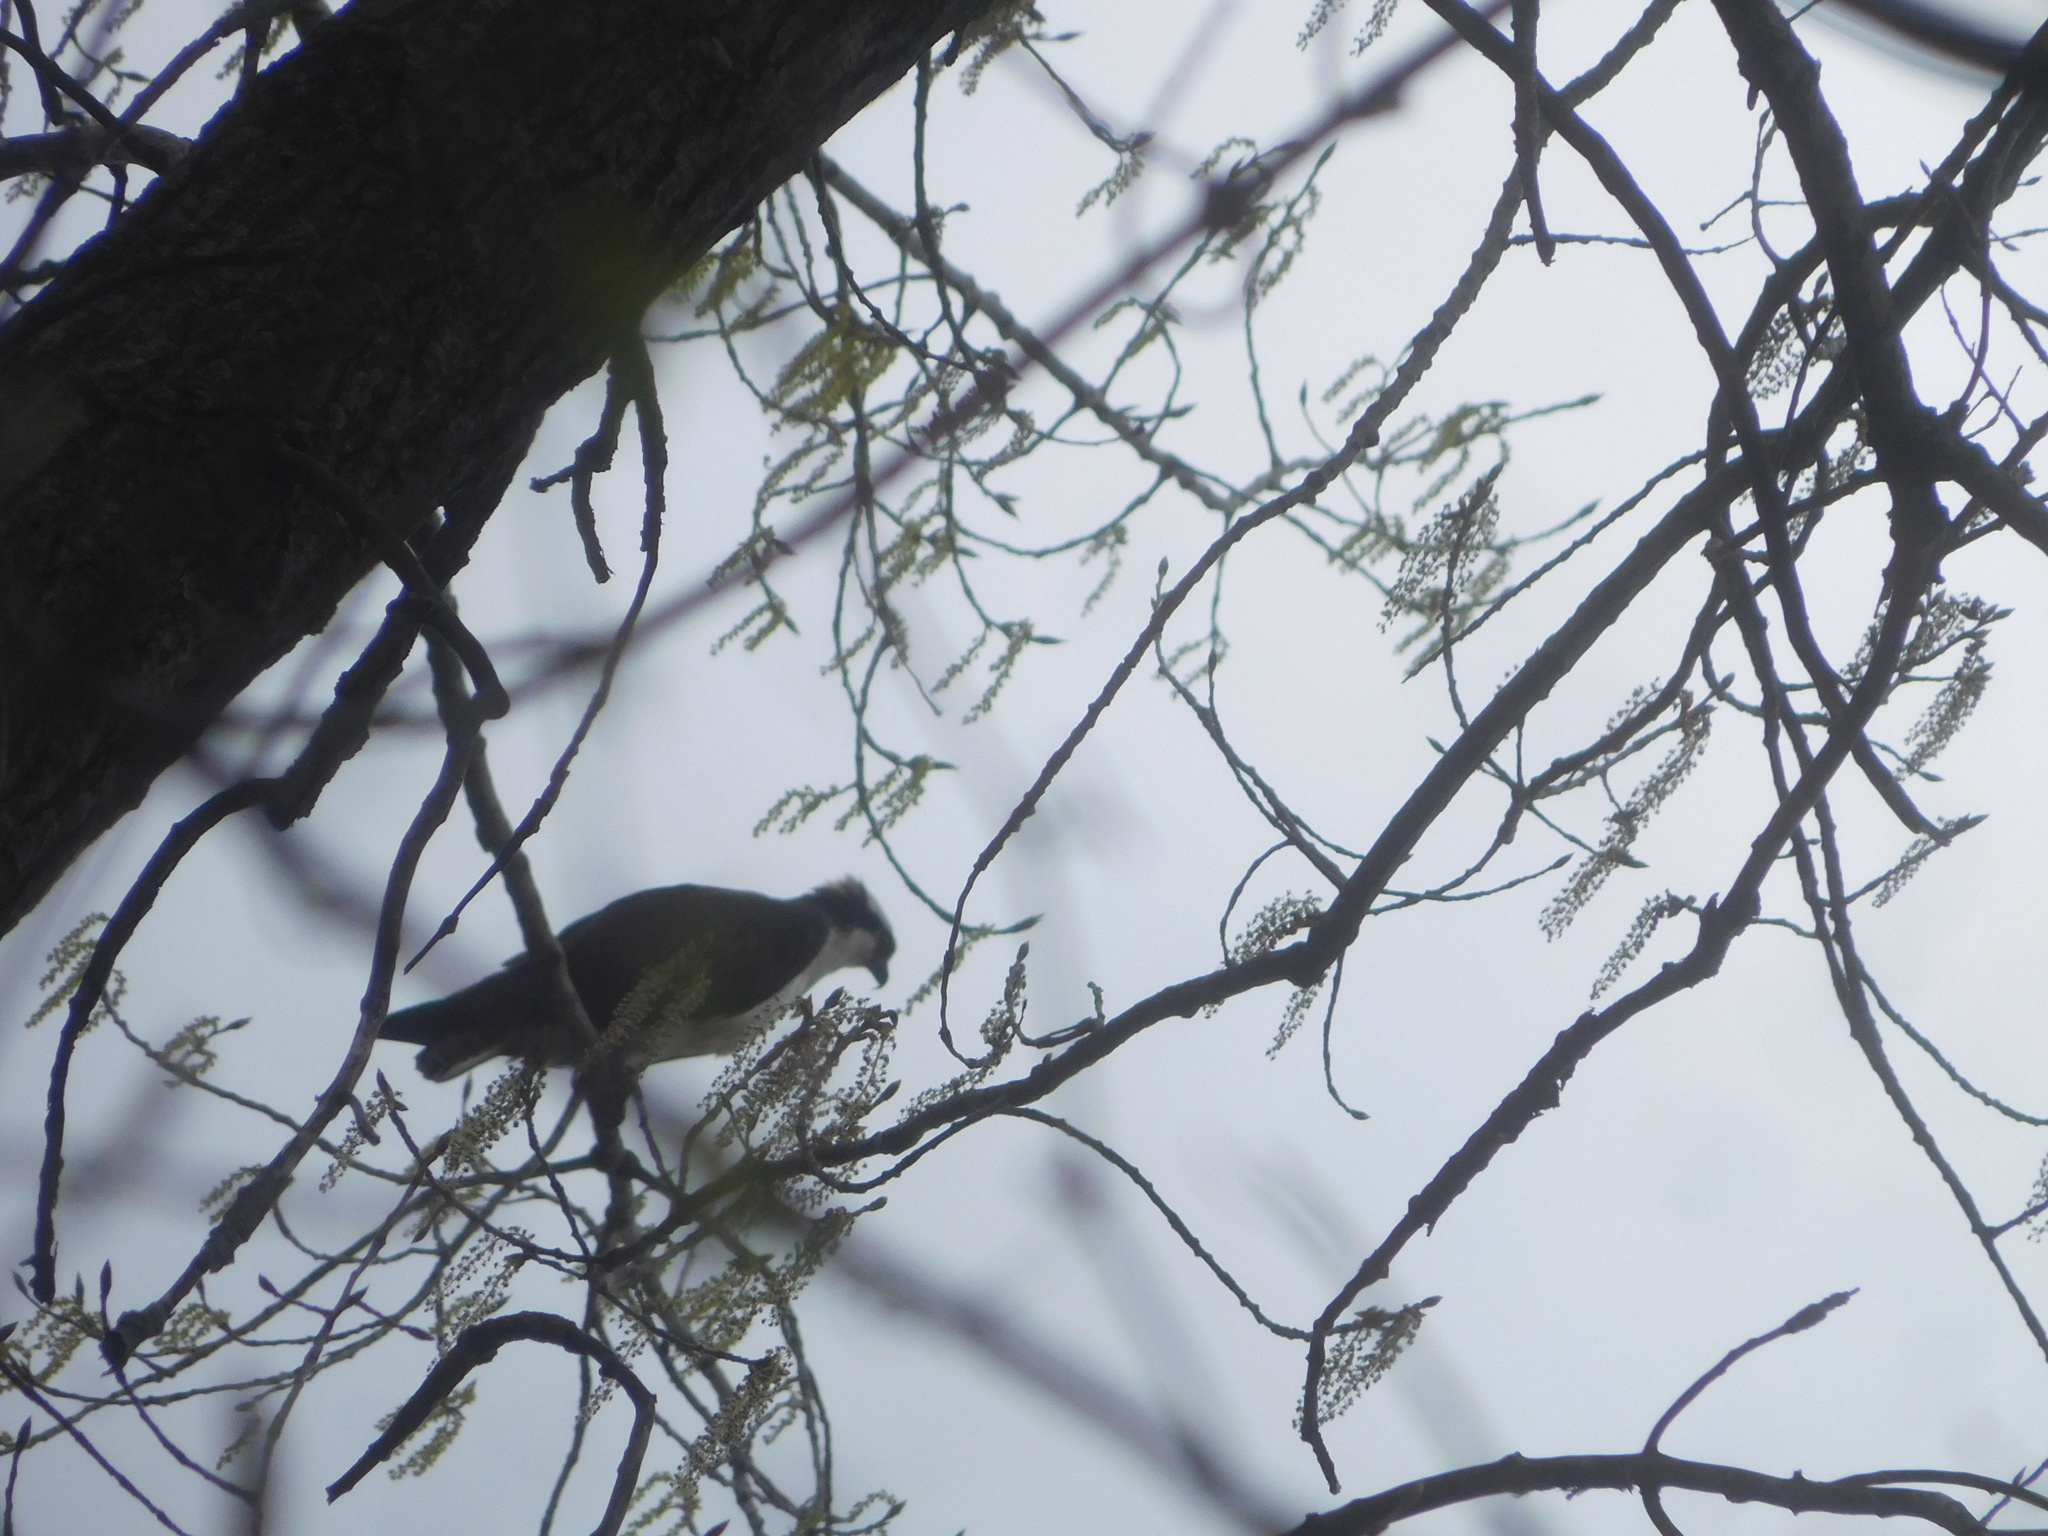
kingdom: Animalia
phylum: Chordata
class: Aves
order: Accipitriformes
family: Pandionidae
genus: Pandion
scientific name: Pandion haliaetus
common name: Osprey
